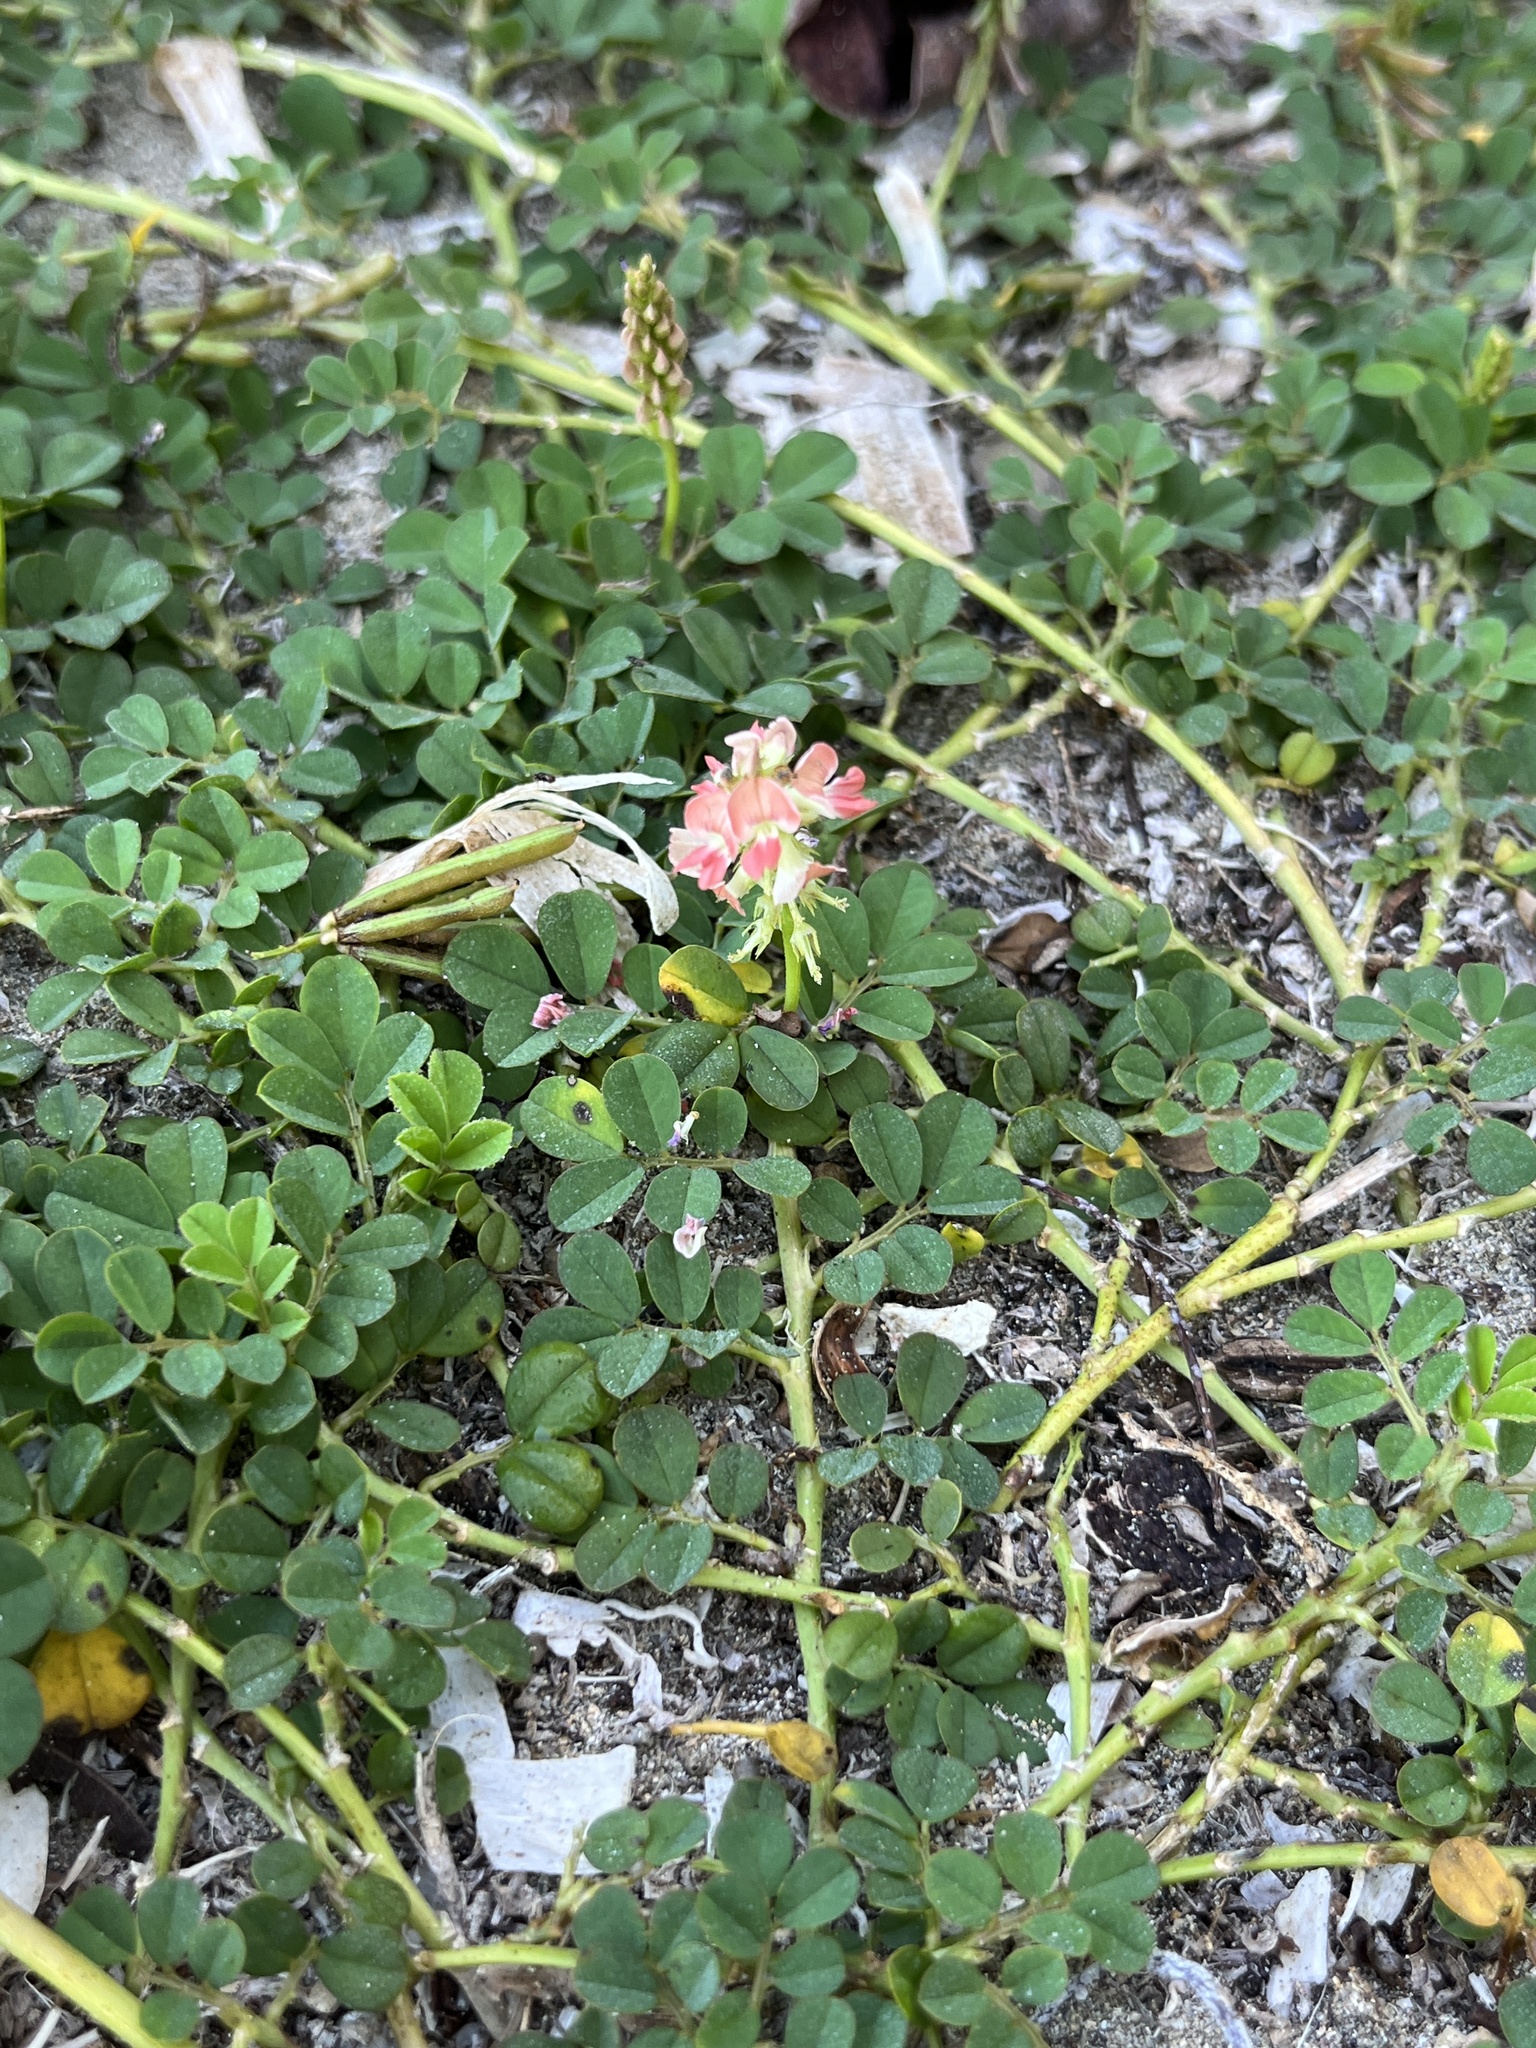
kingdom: Plantae
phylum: Tracheophyta
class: Magnoliopsida
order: Fabales
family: Fabaceae
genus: Indigofera
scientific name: Indigofera spicata
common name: Creeping indigo
